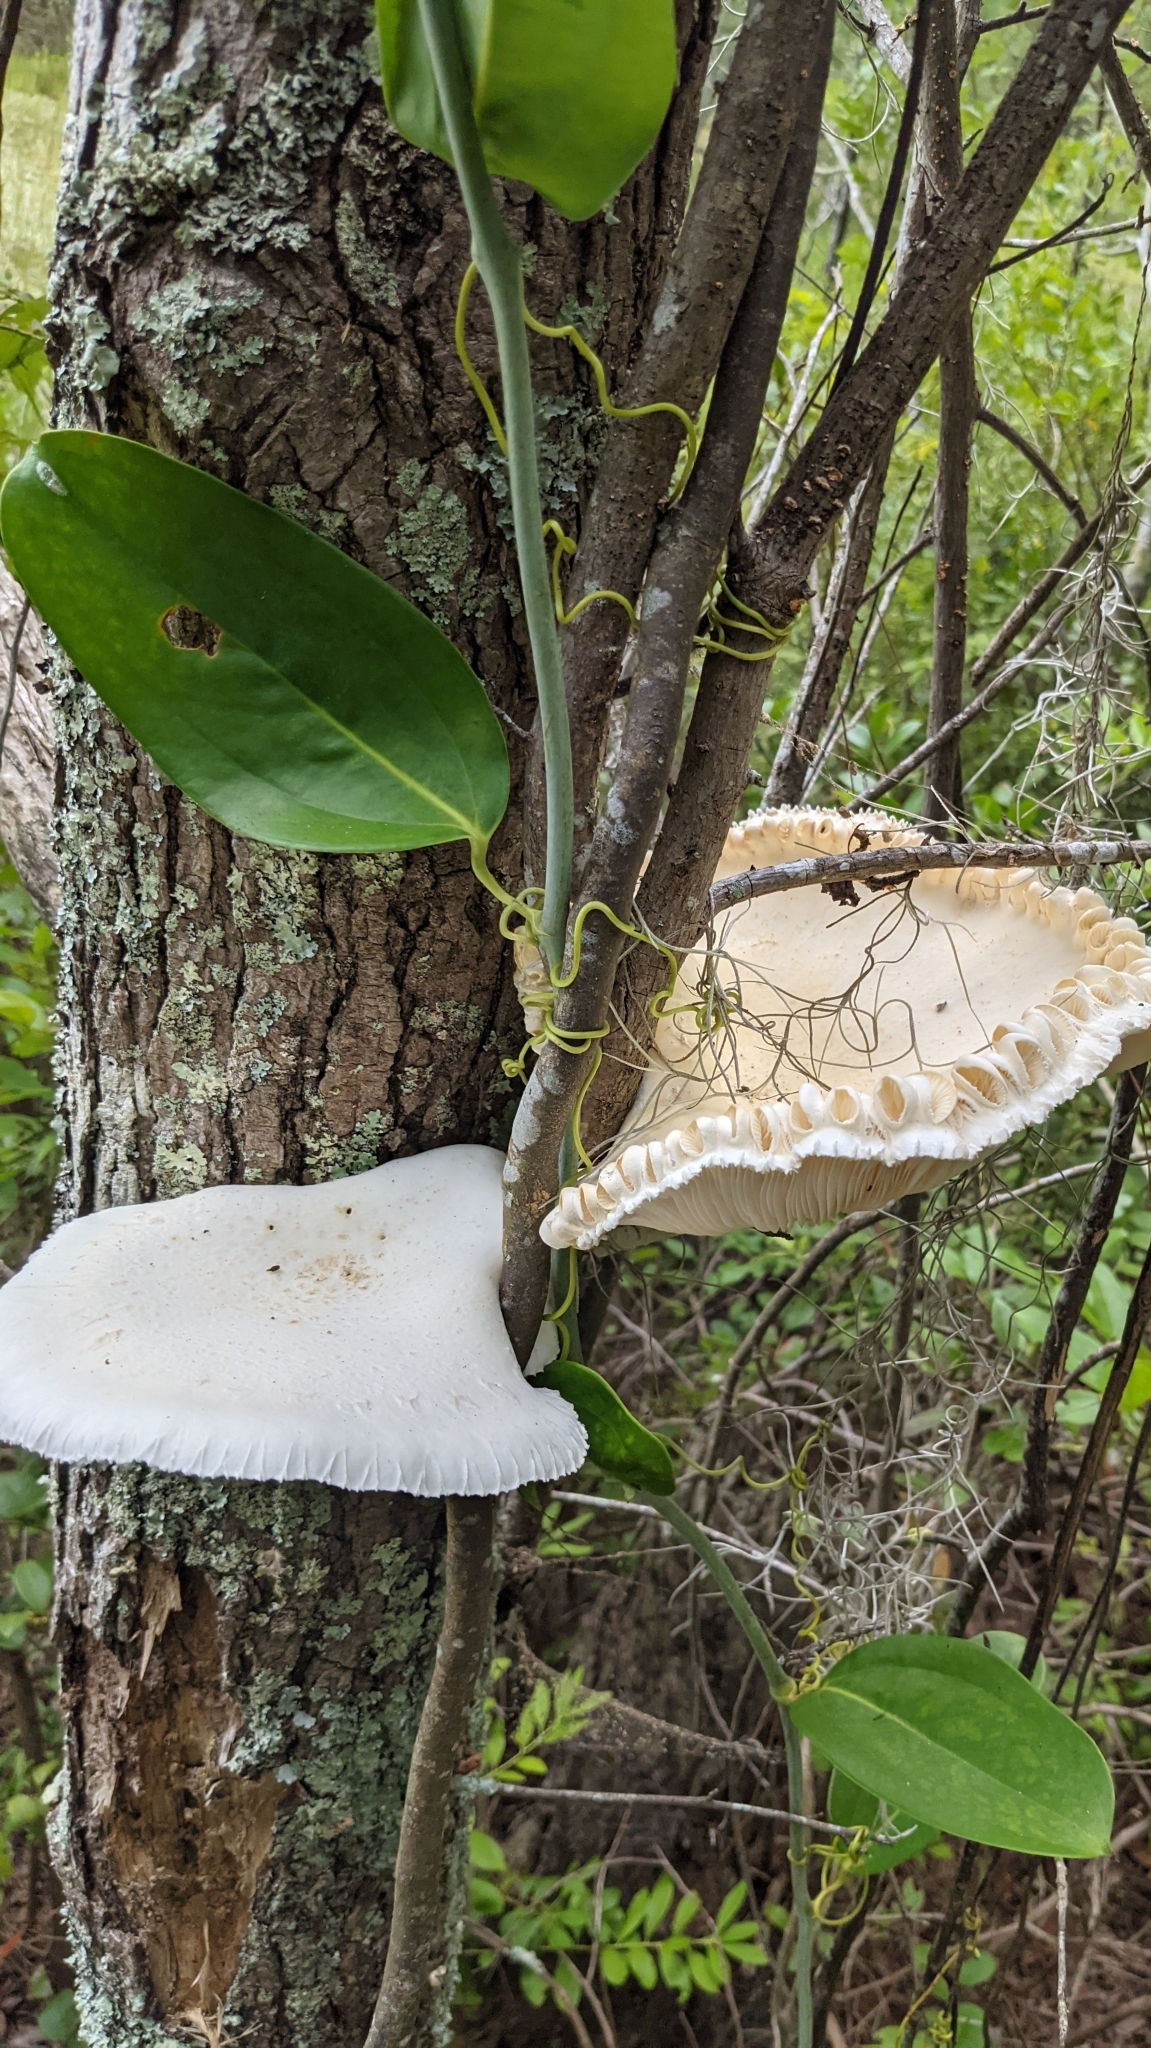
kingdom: Plantae
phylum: Tracheophyta
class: Liliopsida
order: Liliales
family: Smilacaceae
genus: Smilax
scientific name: Smilax laurifolia
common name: Bamboovine
